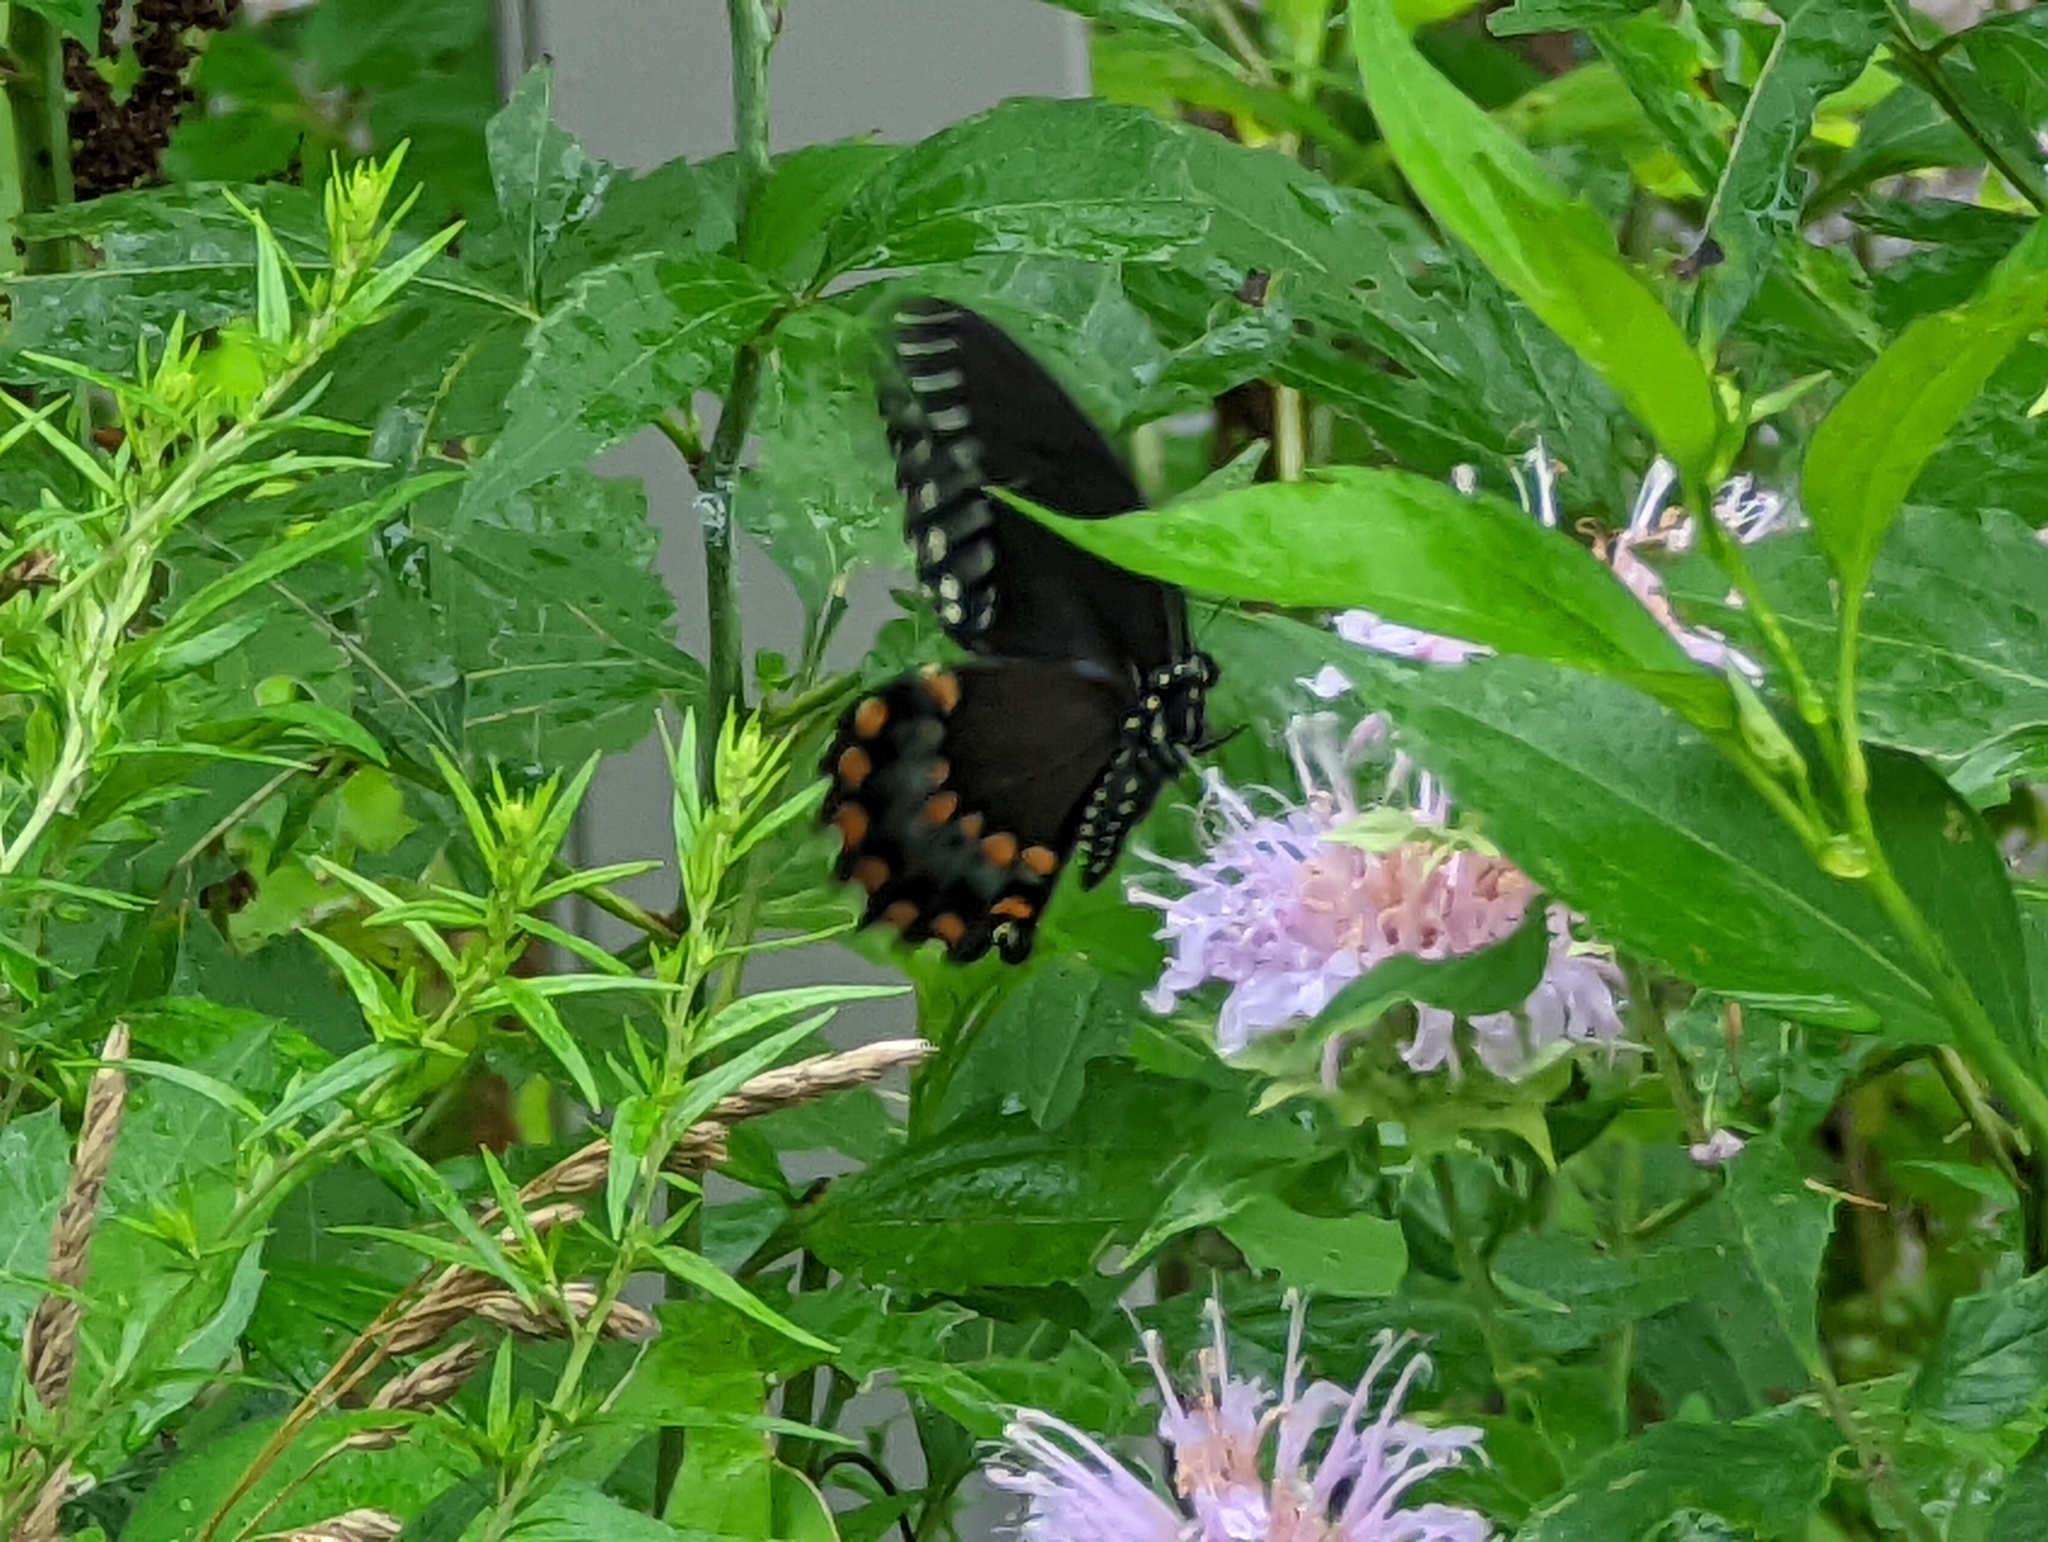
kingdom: Animalia
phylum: Arthropoda
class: Insecta
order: Lepidoptera
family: Papilionidae
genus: Papilio
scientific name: Papilio troilus
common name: Spicebush swallowtail
